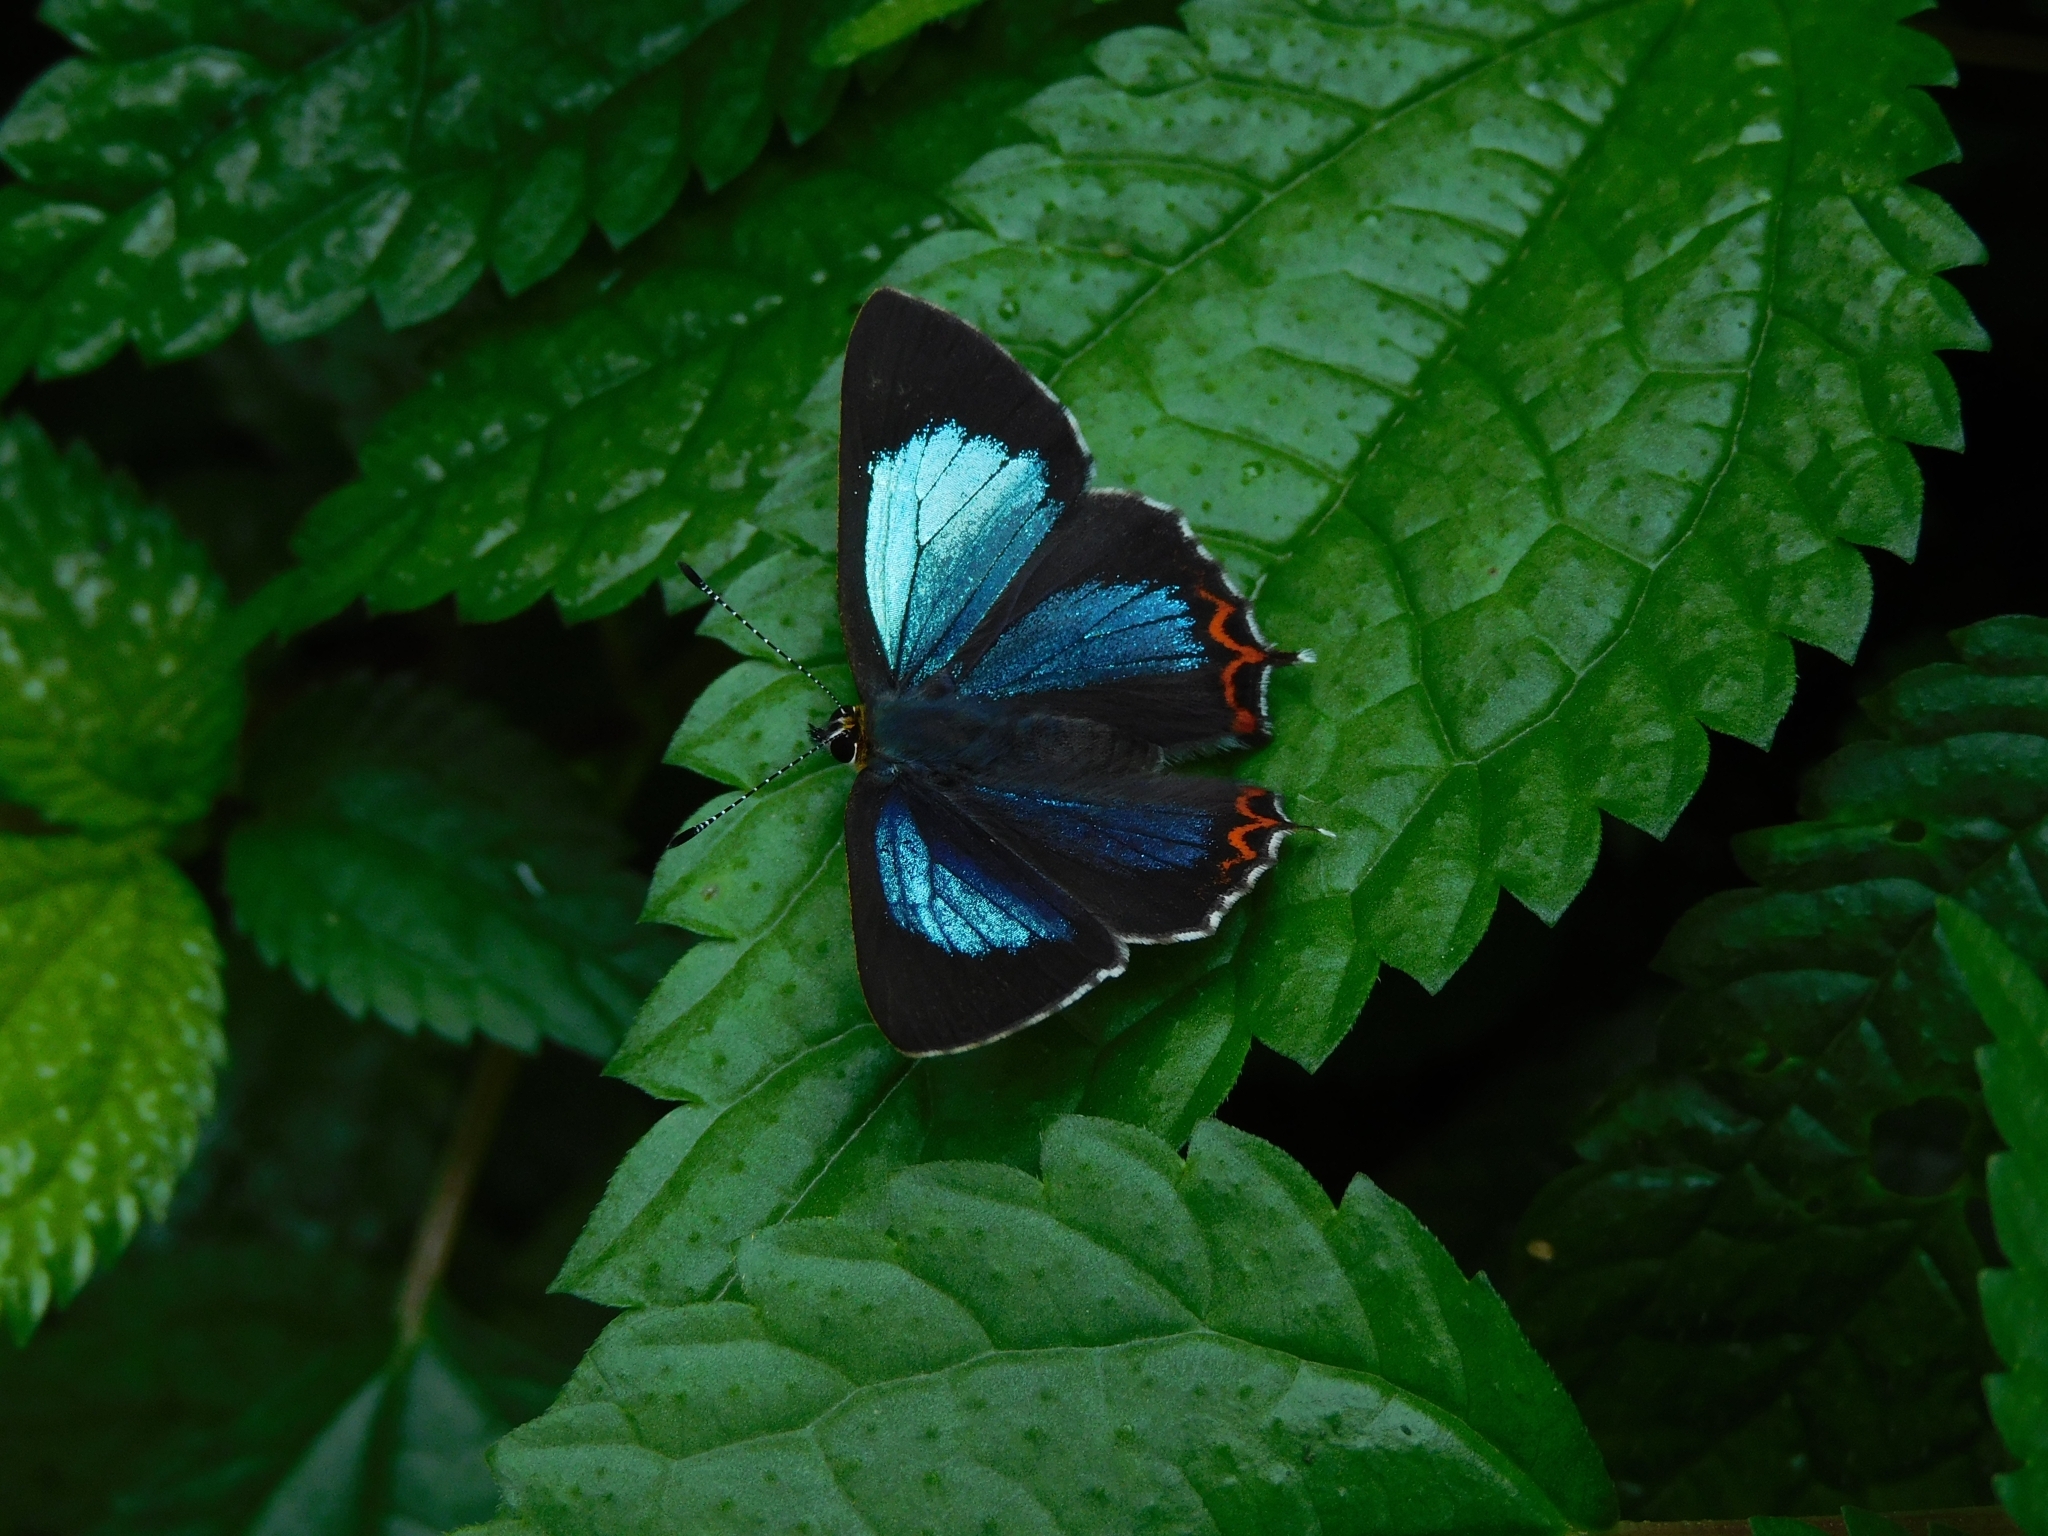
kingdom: Animalia
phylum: Arthropoda
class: Insecta
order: Lepidoptera
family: Lycaenidae
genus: Heliophorus
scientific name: Heliophorus
